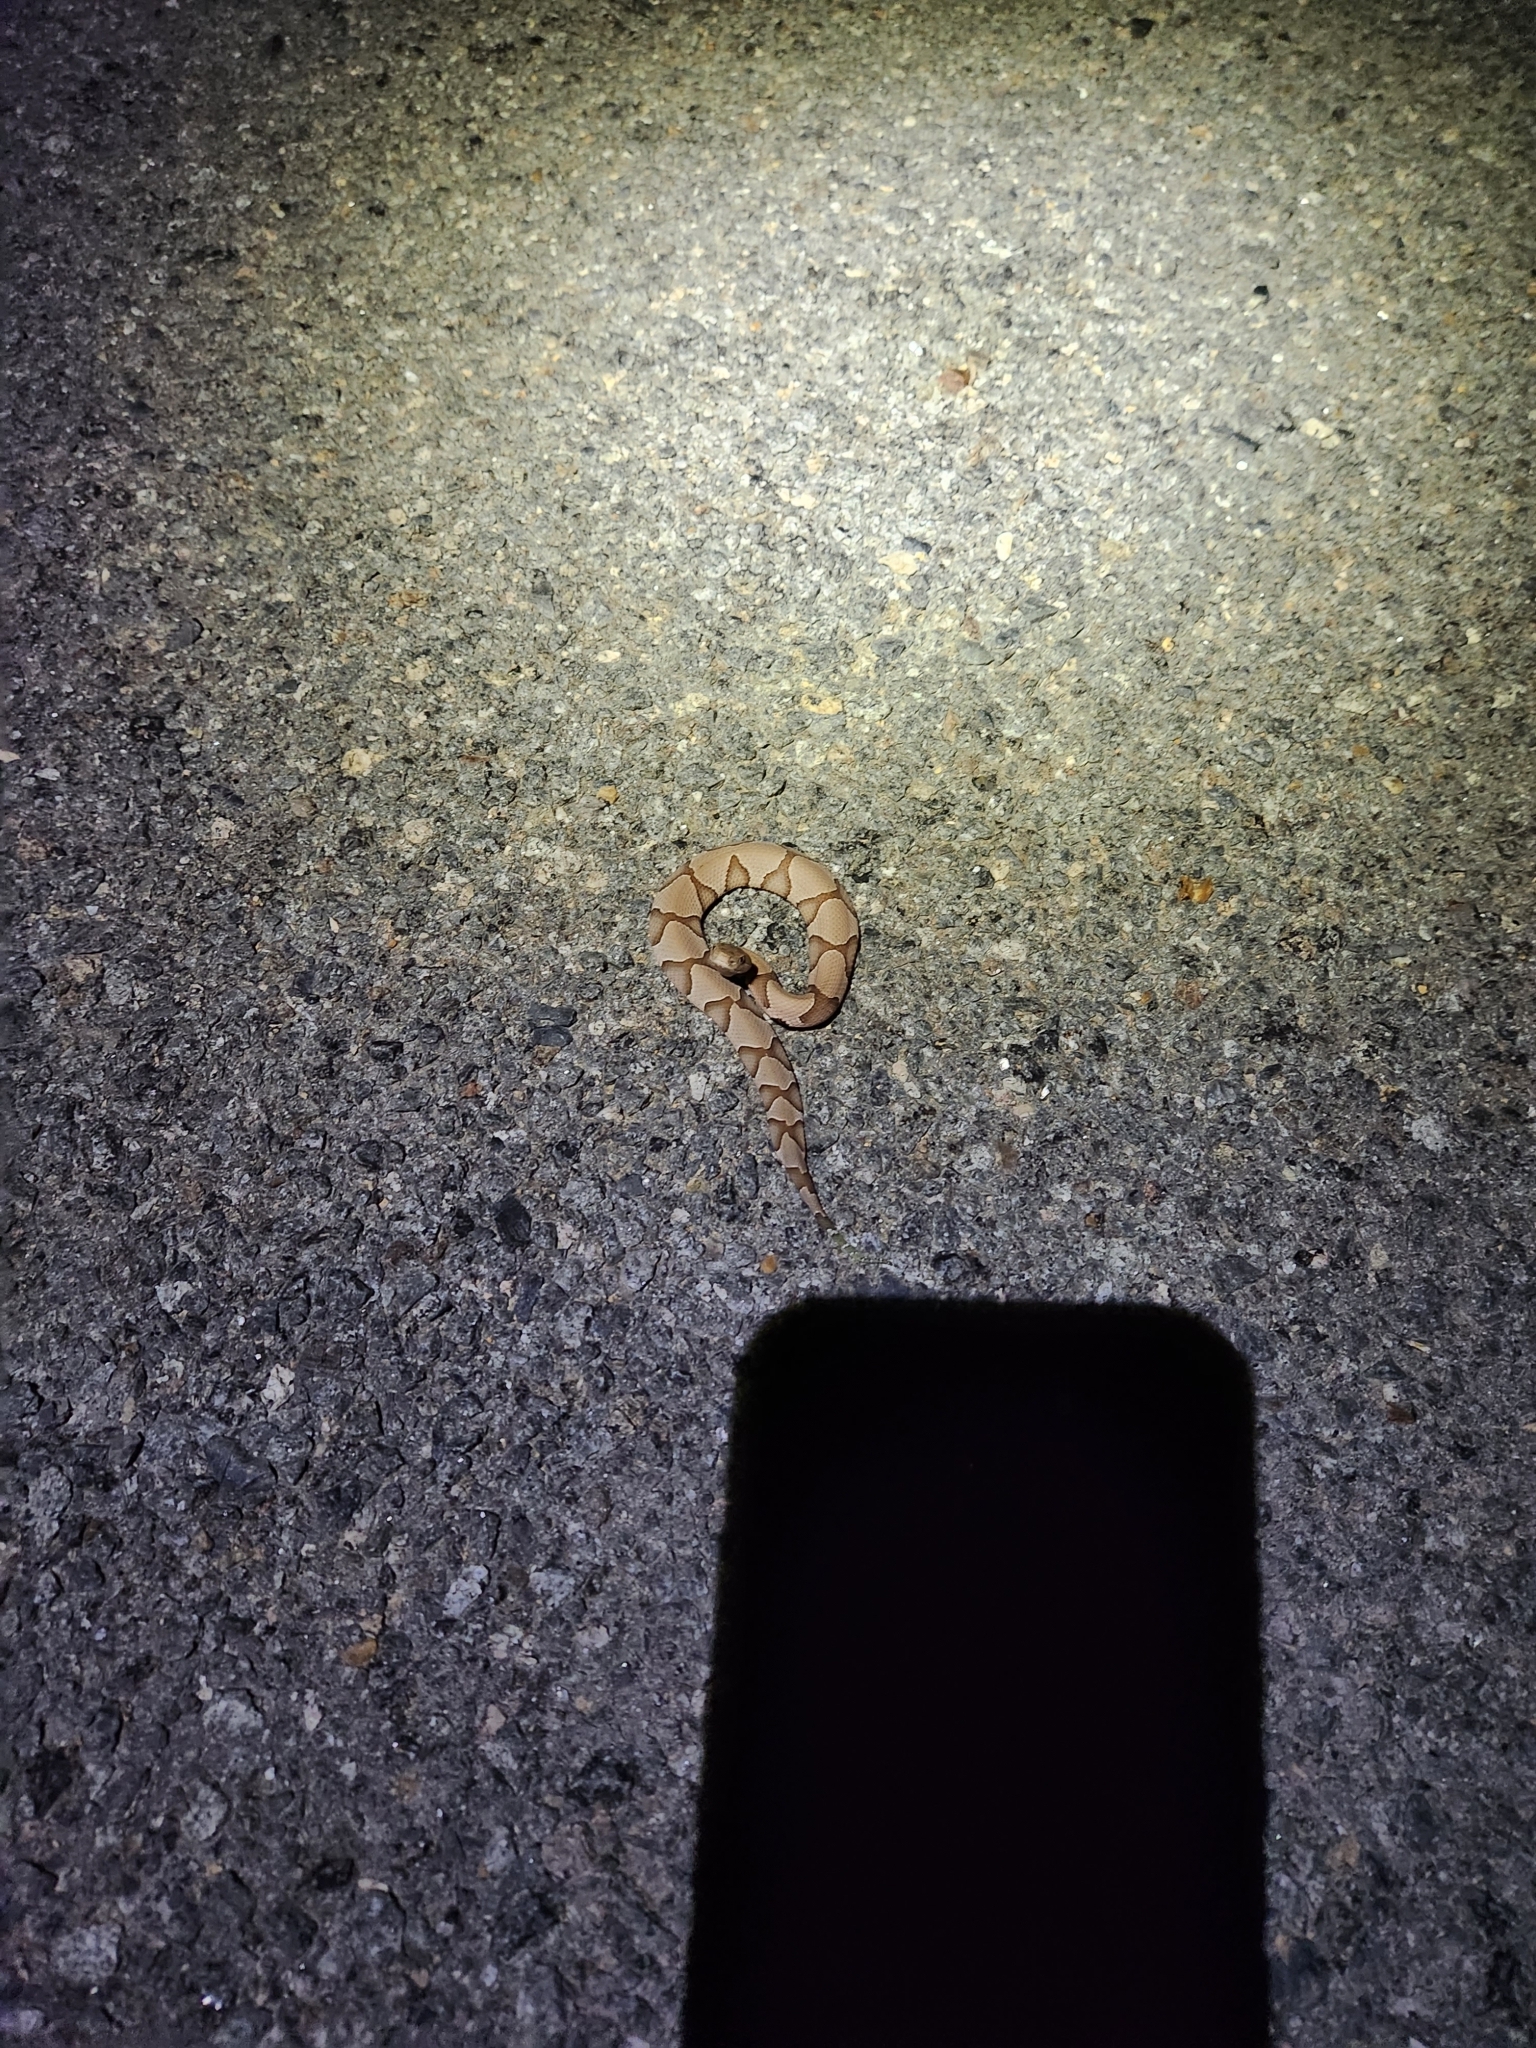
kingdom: Animalia
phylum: Chordata
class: Squamata
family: Viperidae
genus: Agkistrodon
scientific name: Agkistrodon contortrix
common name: Northern copperhead
